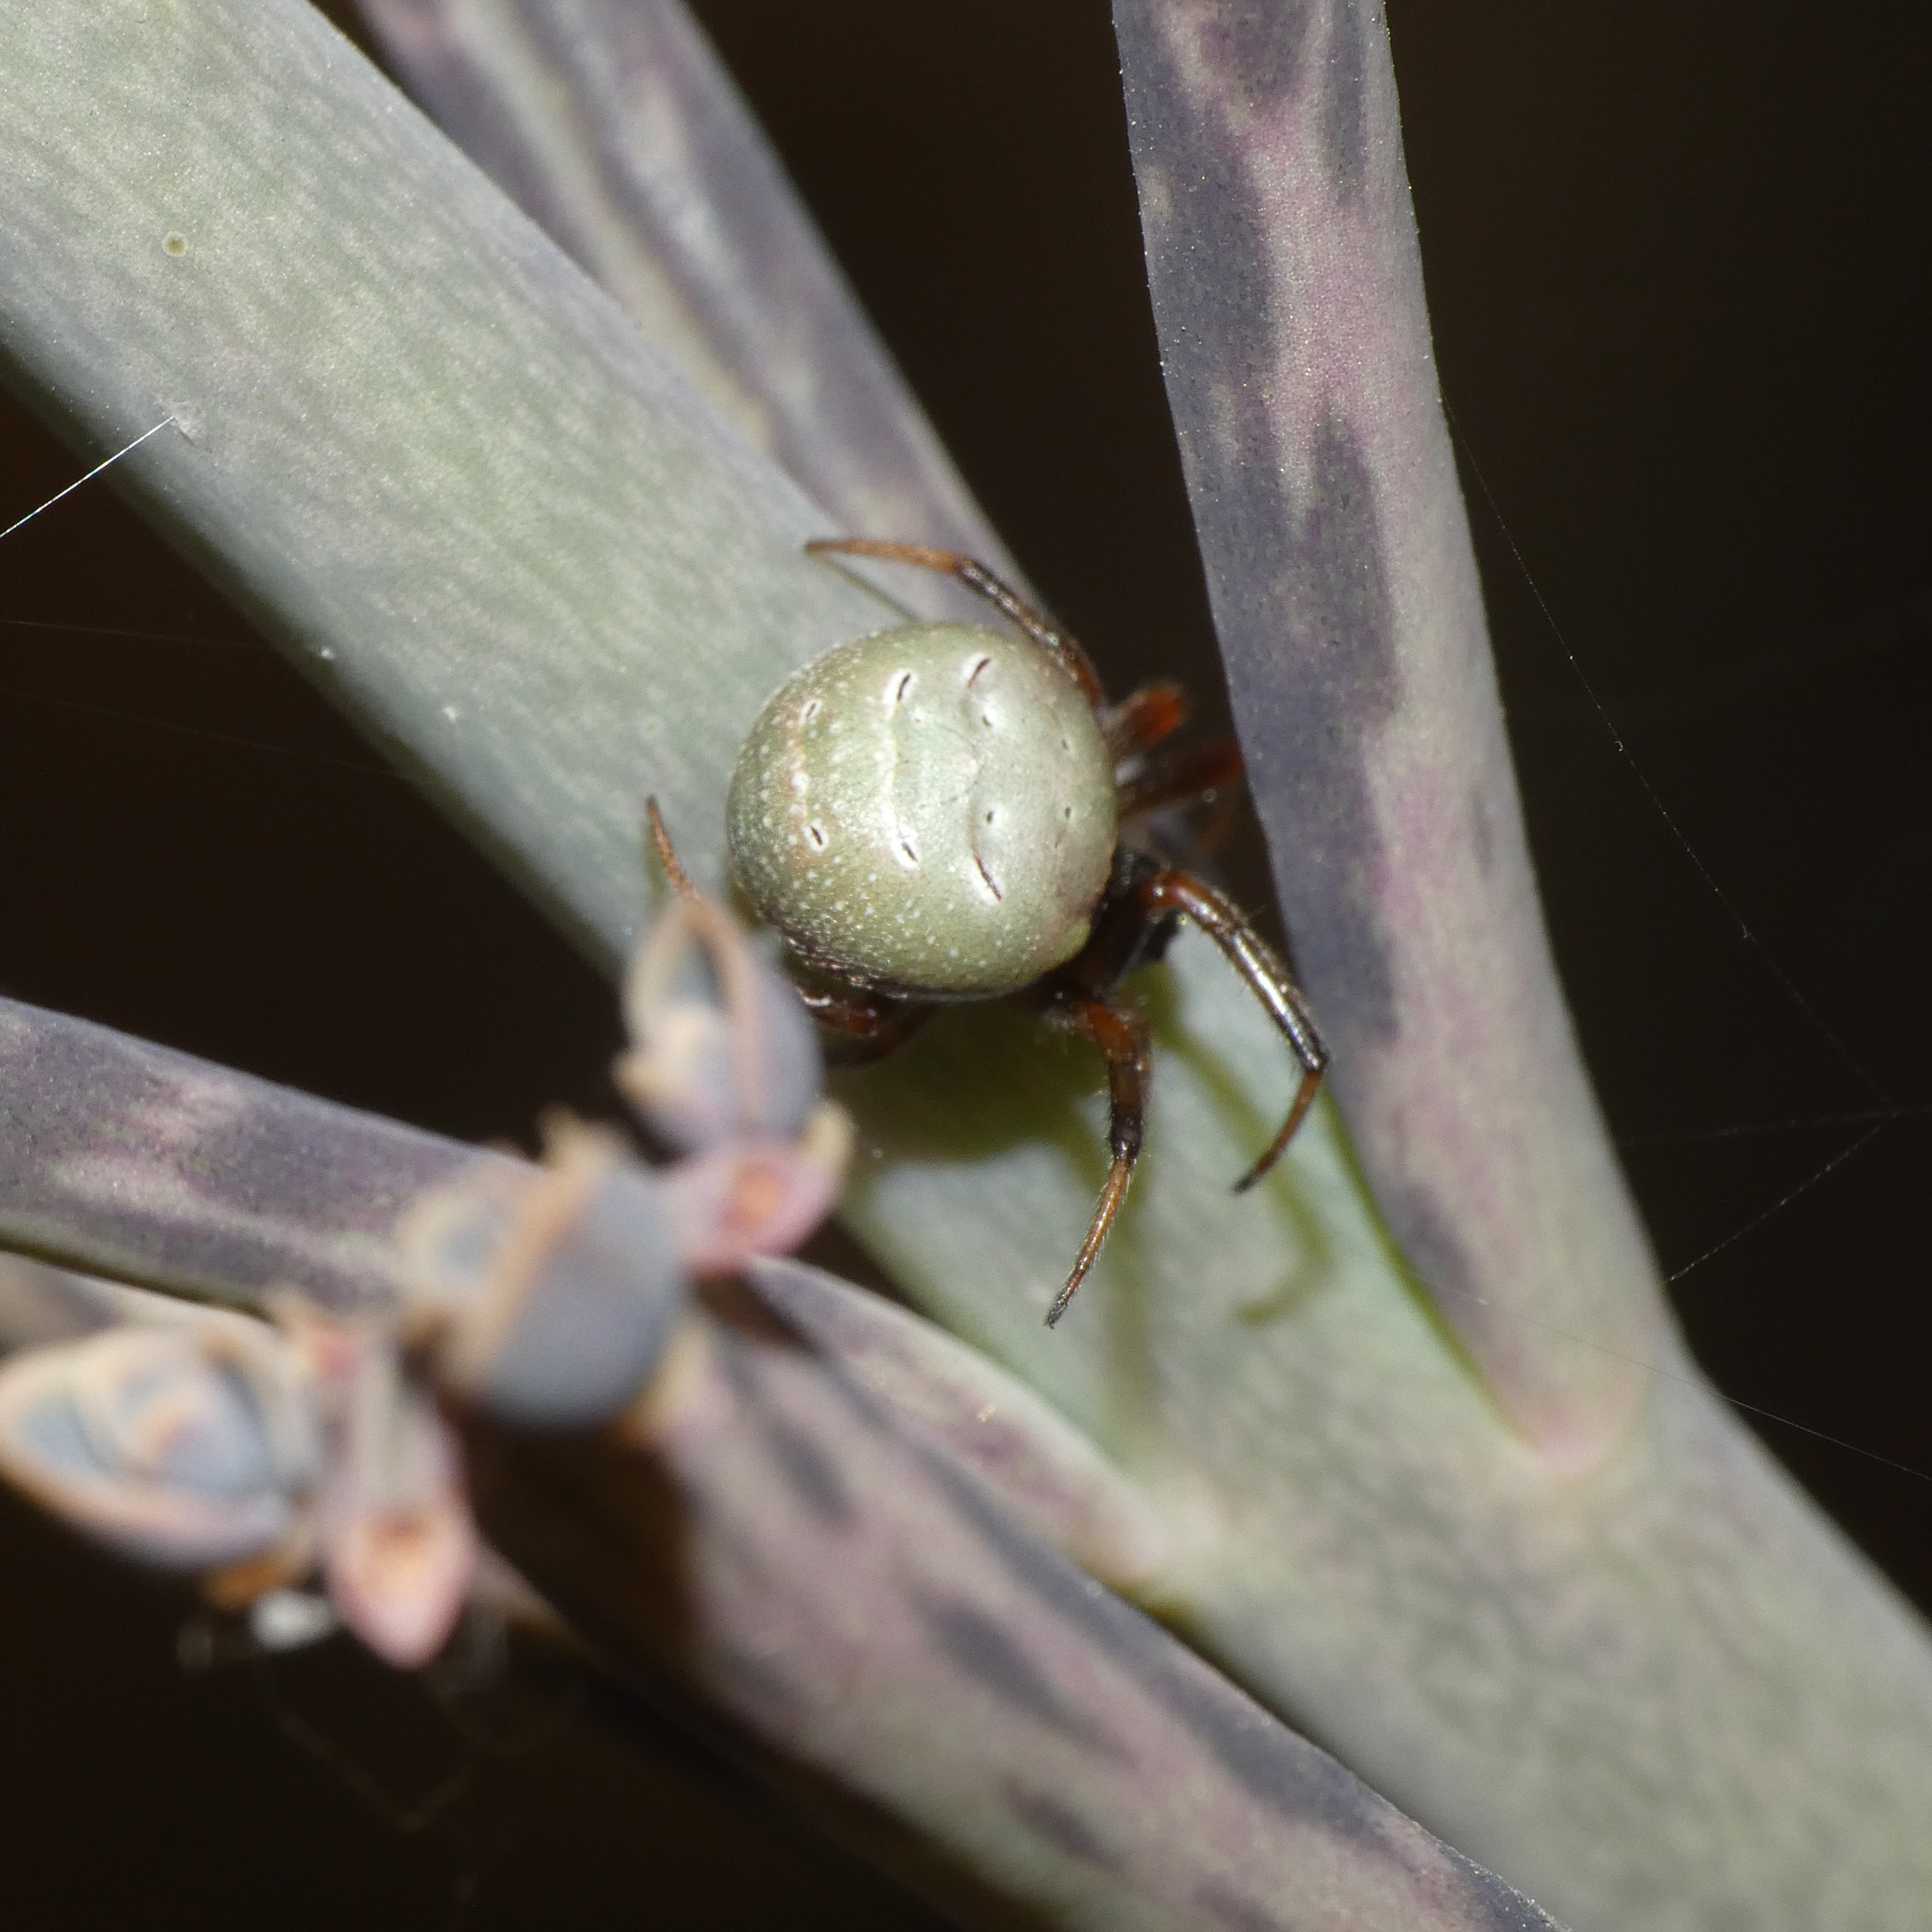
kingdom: Animalia
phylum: Arthropoda
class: Arachnida
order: Araneae
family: Araneidae
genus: Araneus
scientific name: Araneus apricus
